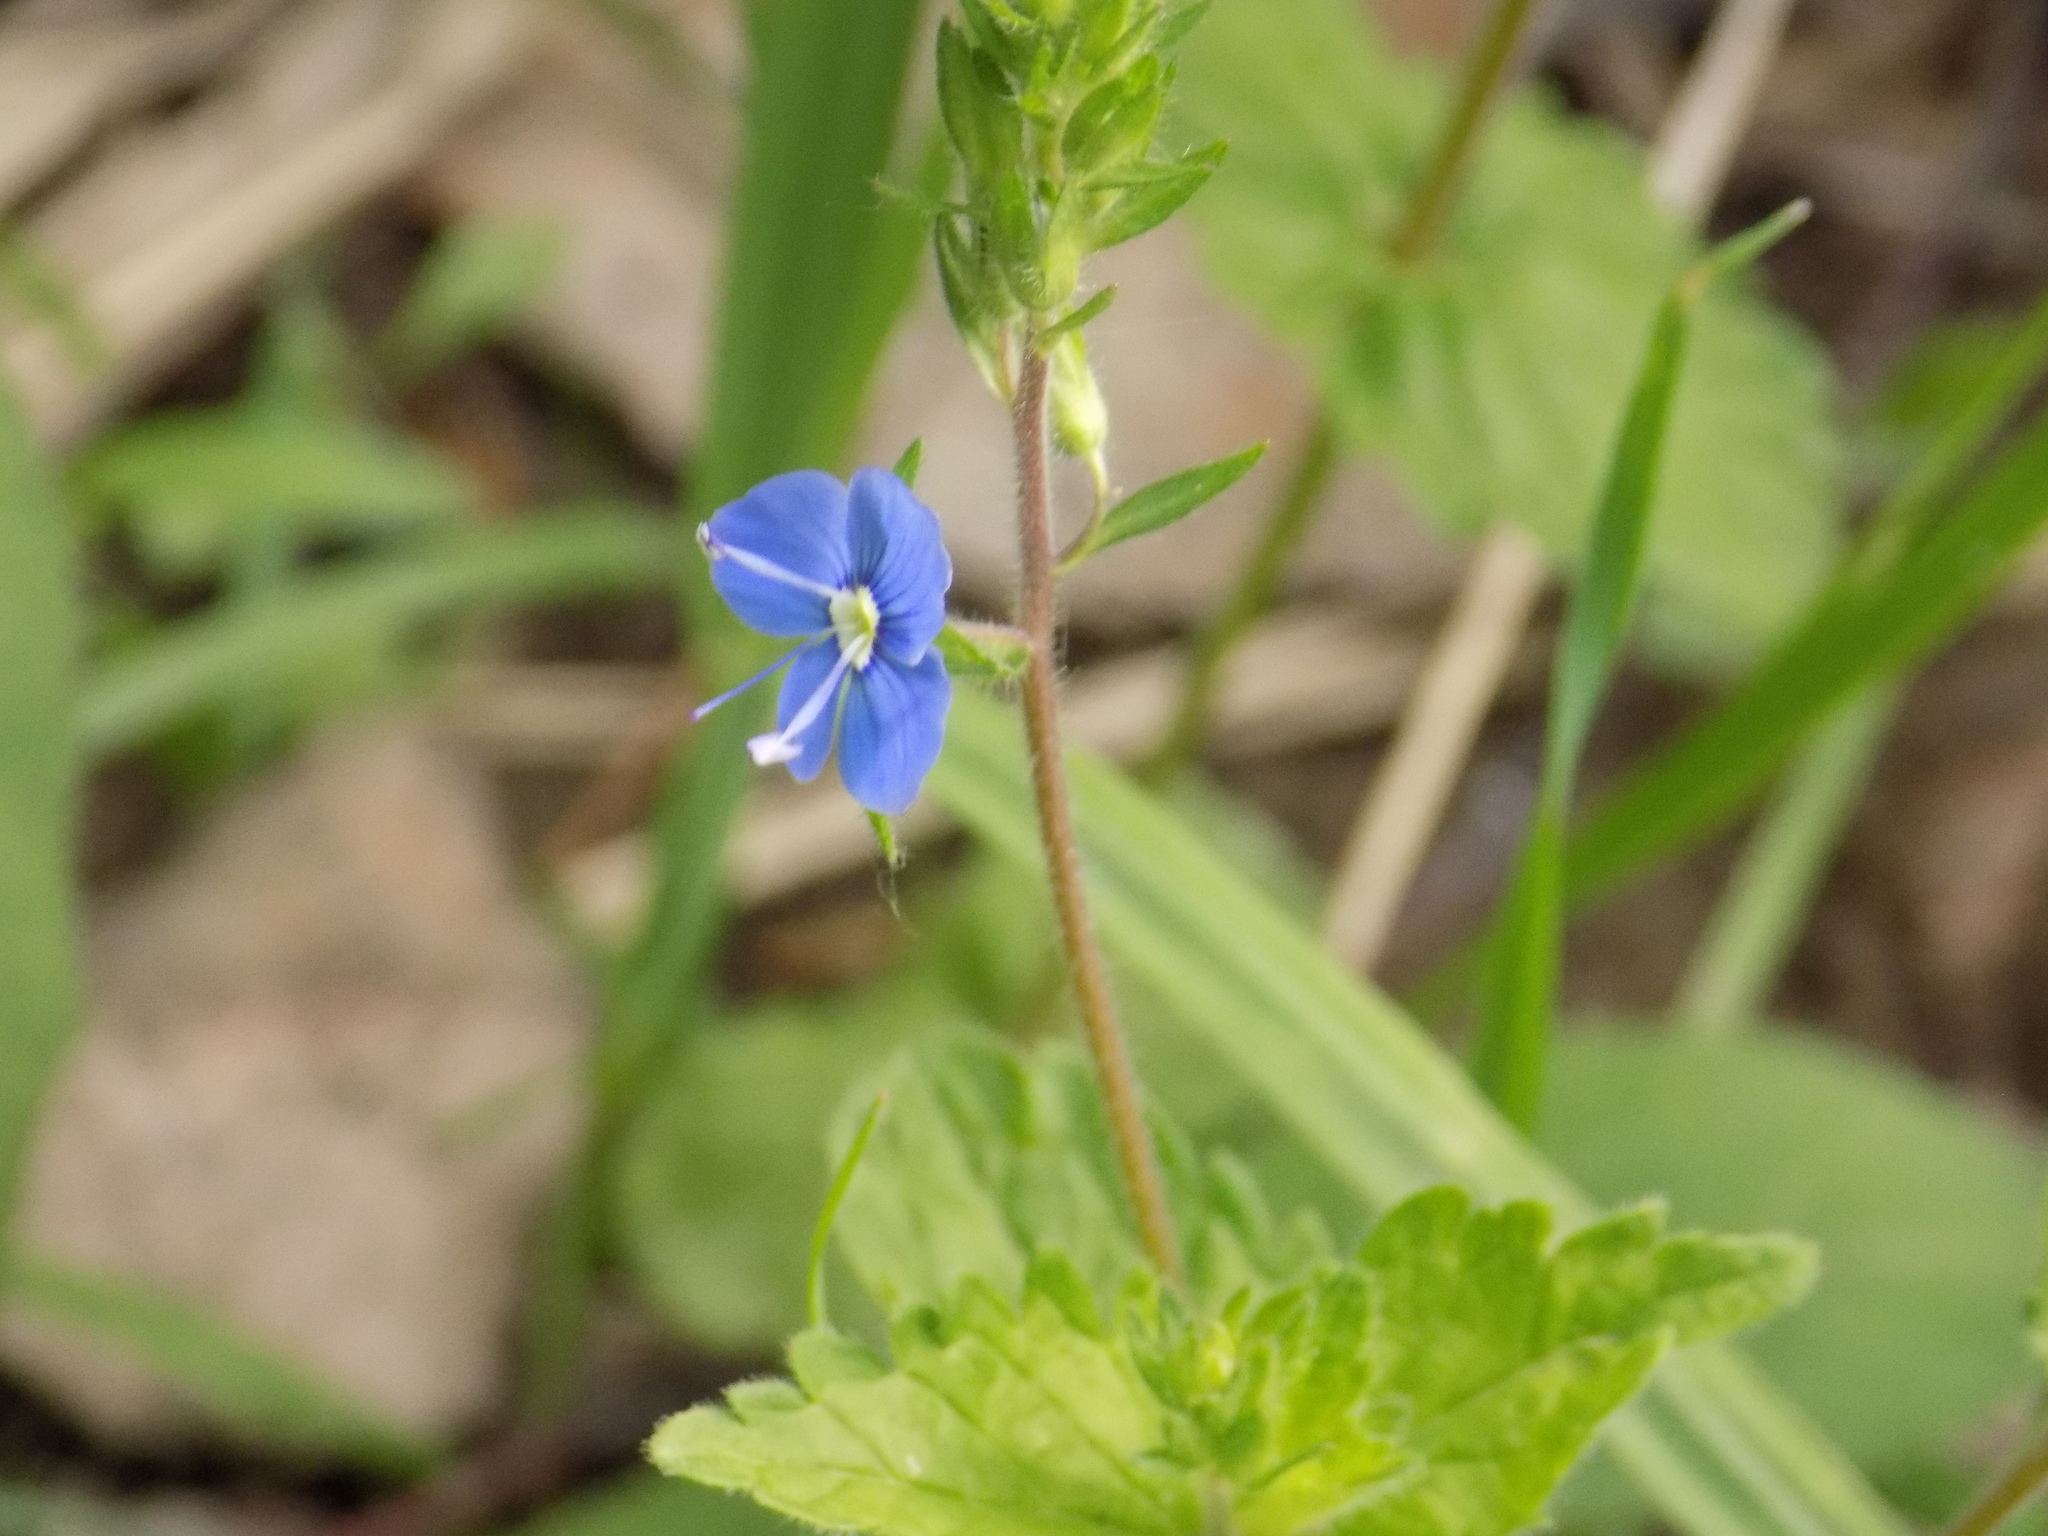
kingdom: Plantae
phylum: Tracheophyta
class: Magnoliopsida
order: Lamiales
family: Plantaginaceae
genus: Veronica
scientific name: Veronica chamaedrys
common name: Germander speedwell
